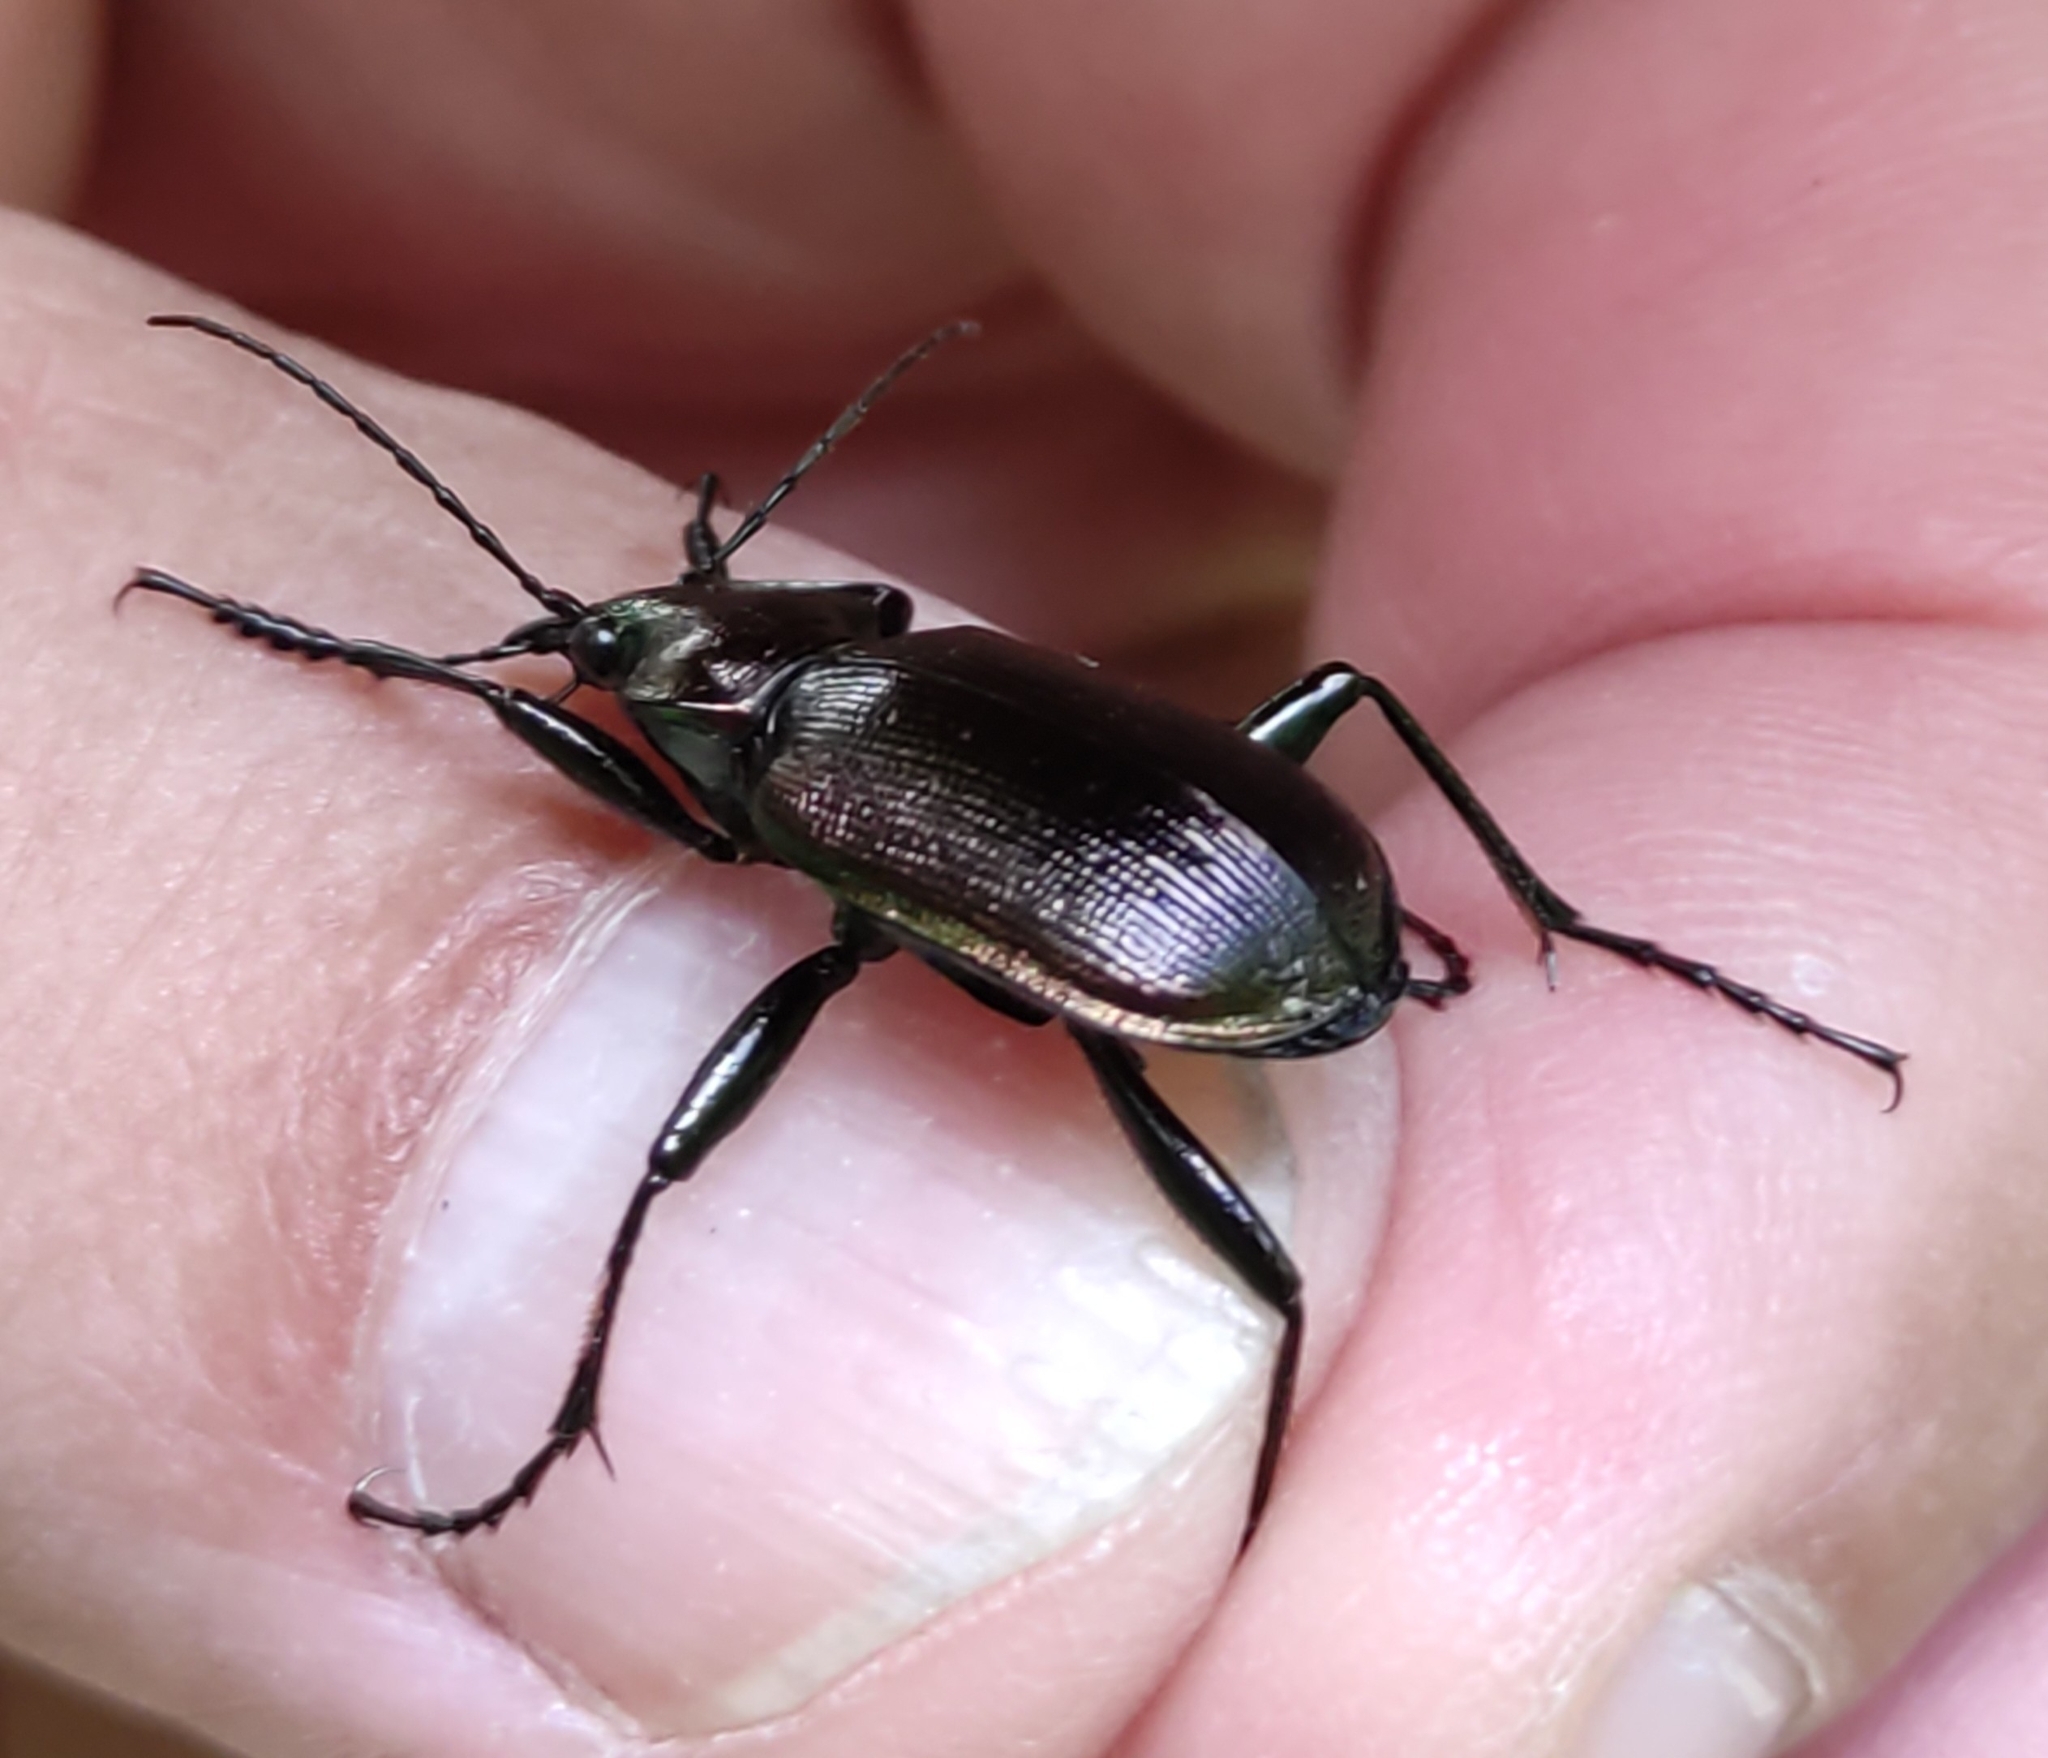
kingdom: Animalia
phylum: Arthropoda
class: Insecta
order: Coleoptera
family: Carabidae
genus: Calosoma
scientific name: Calosoma inquisitor
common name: Caterpillar-hunter
